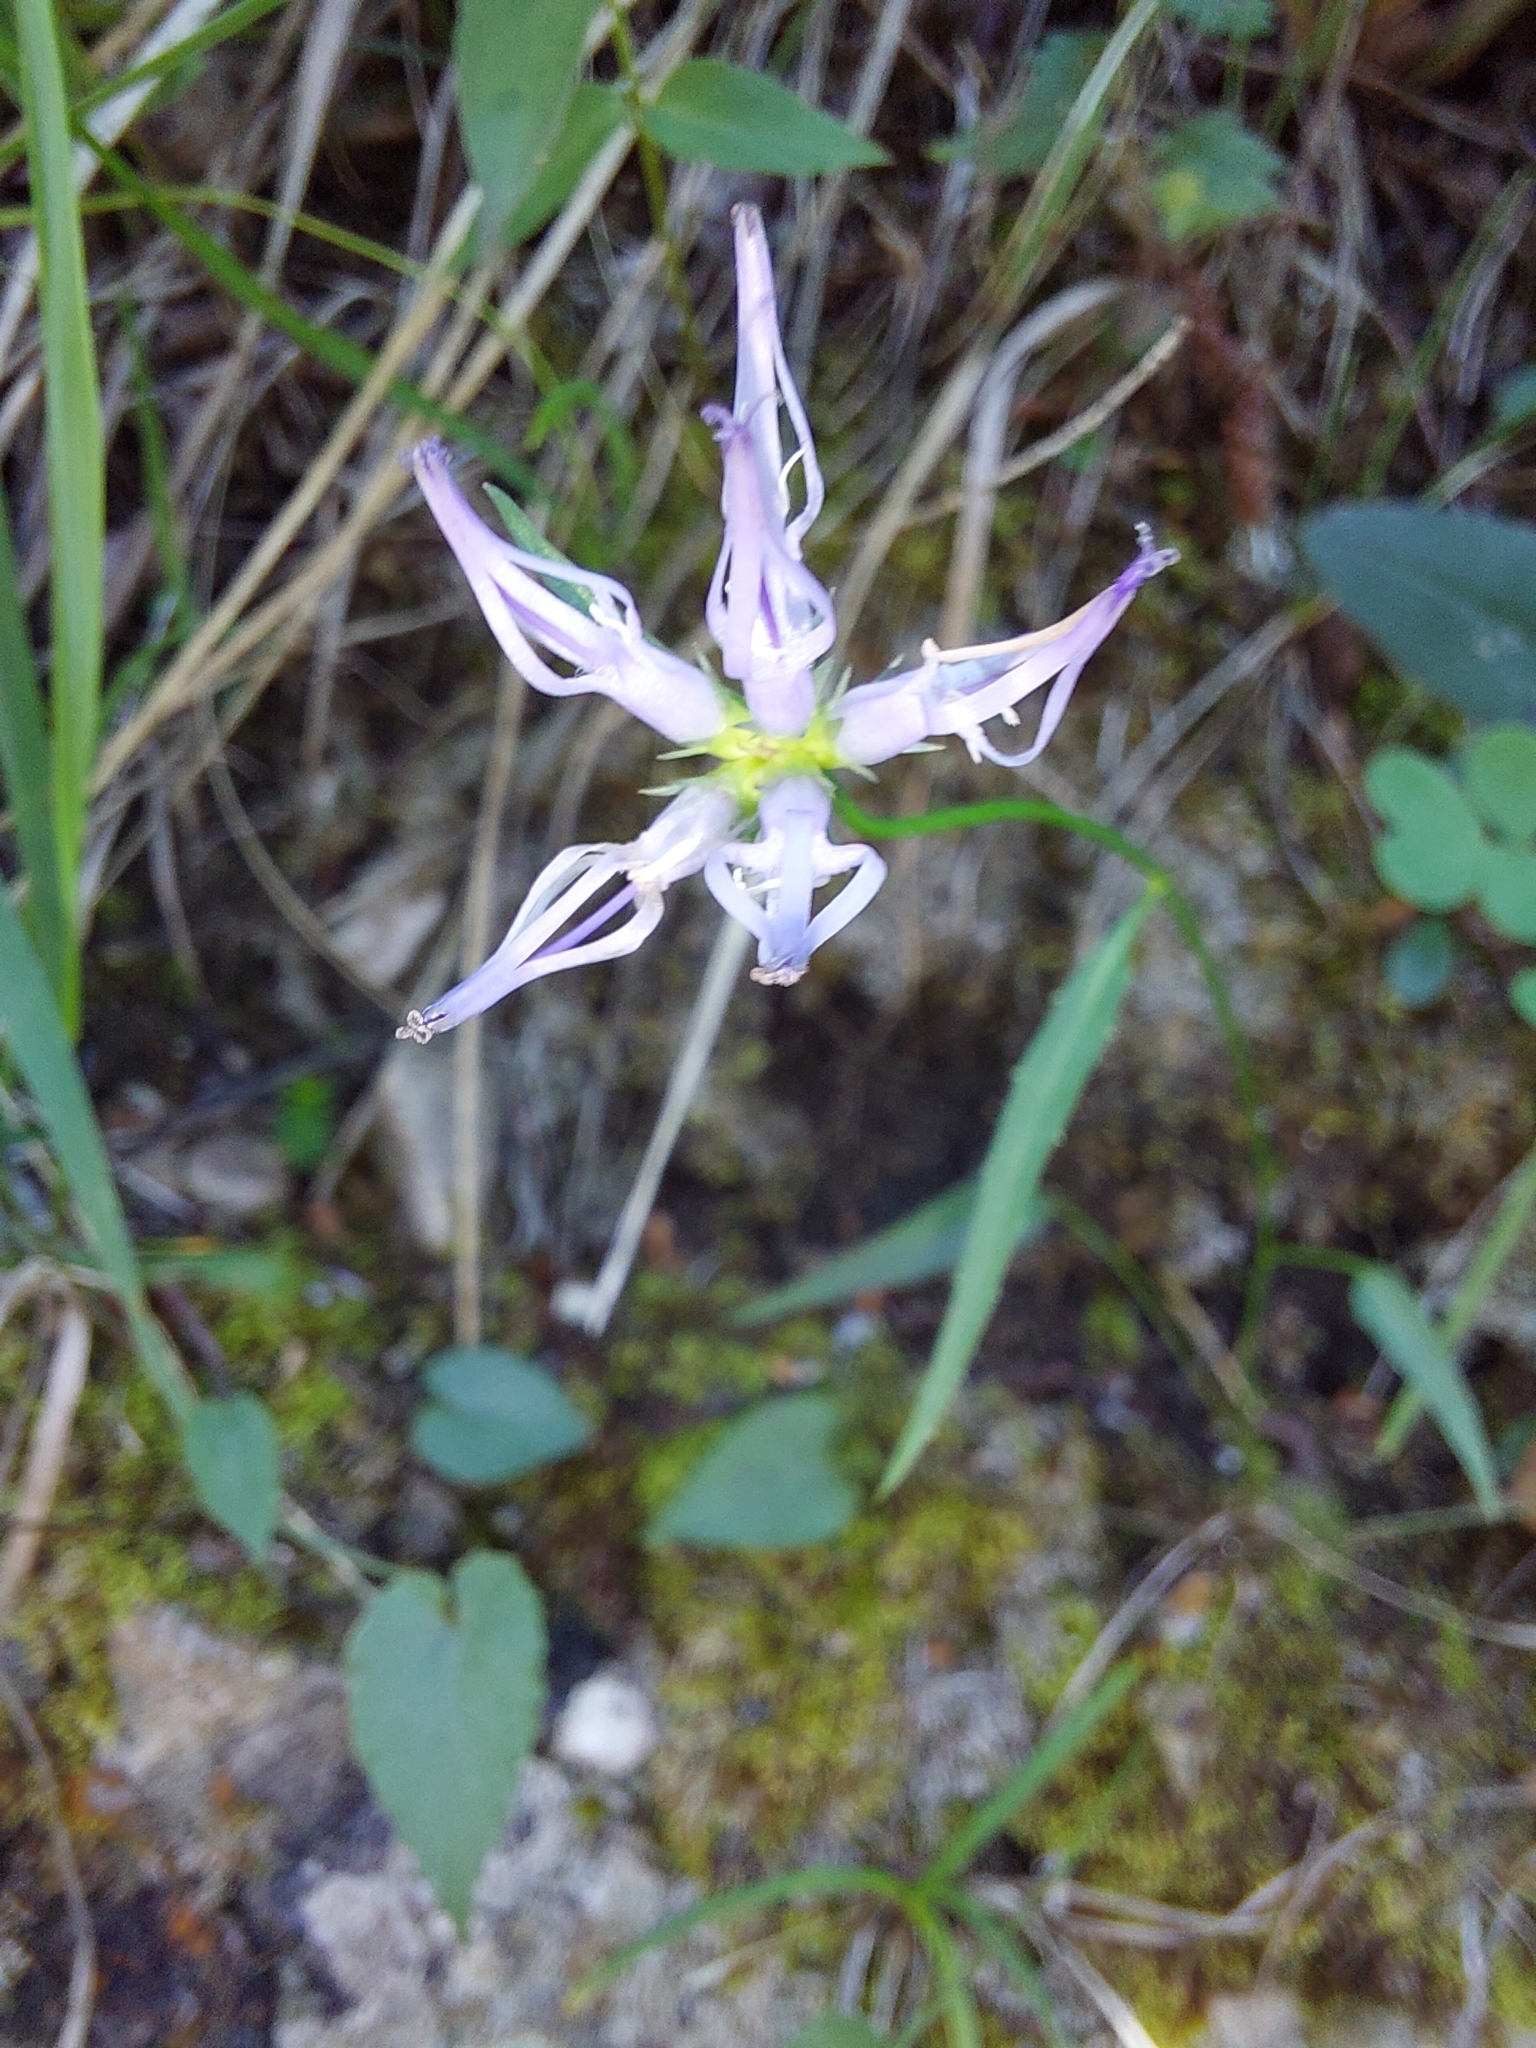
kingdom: Plantae
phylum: Tracheophyta
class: Magnoliopsida
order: Asterales
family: Campanulaceae
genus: Phyteuma
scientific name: Phyteuma scheuchzeri
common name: Oxford rampion
